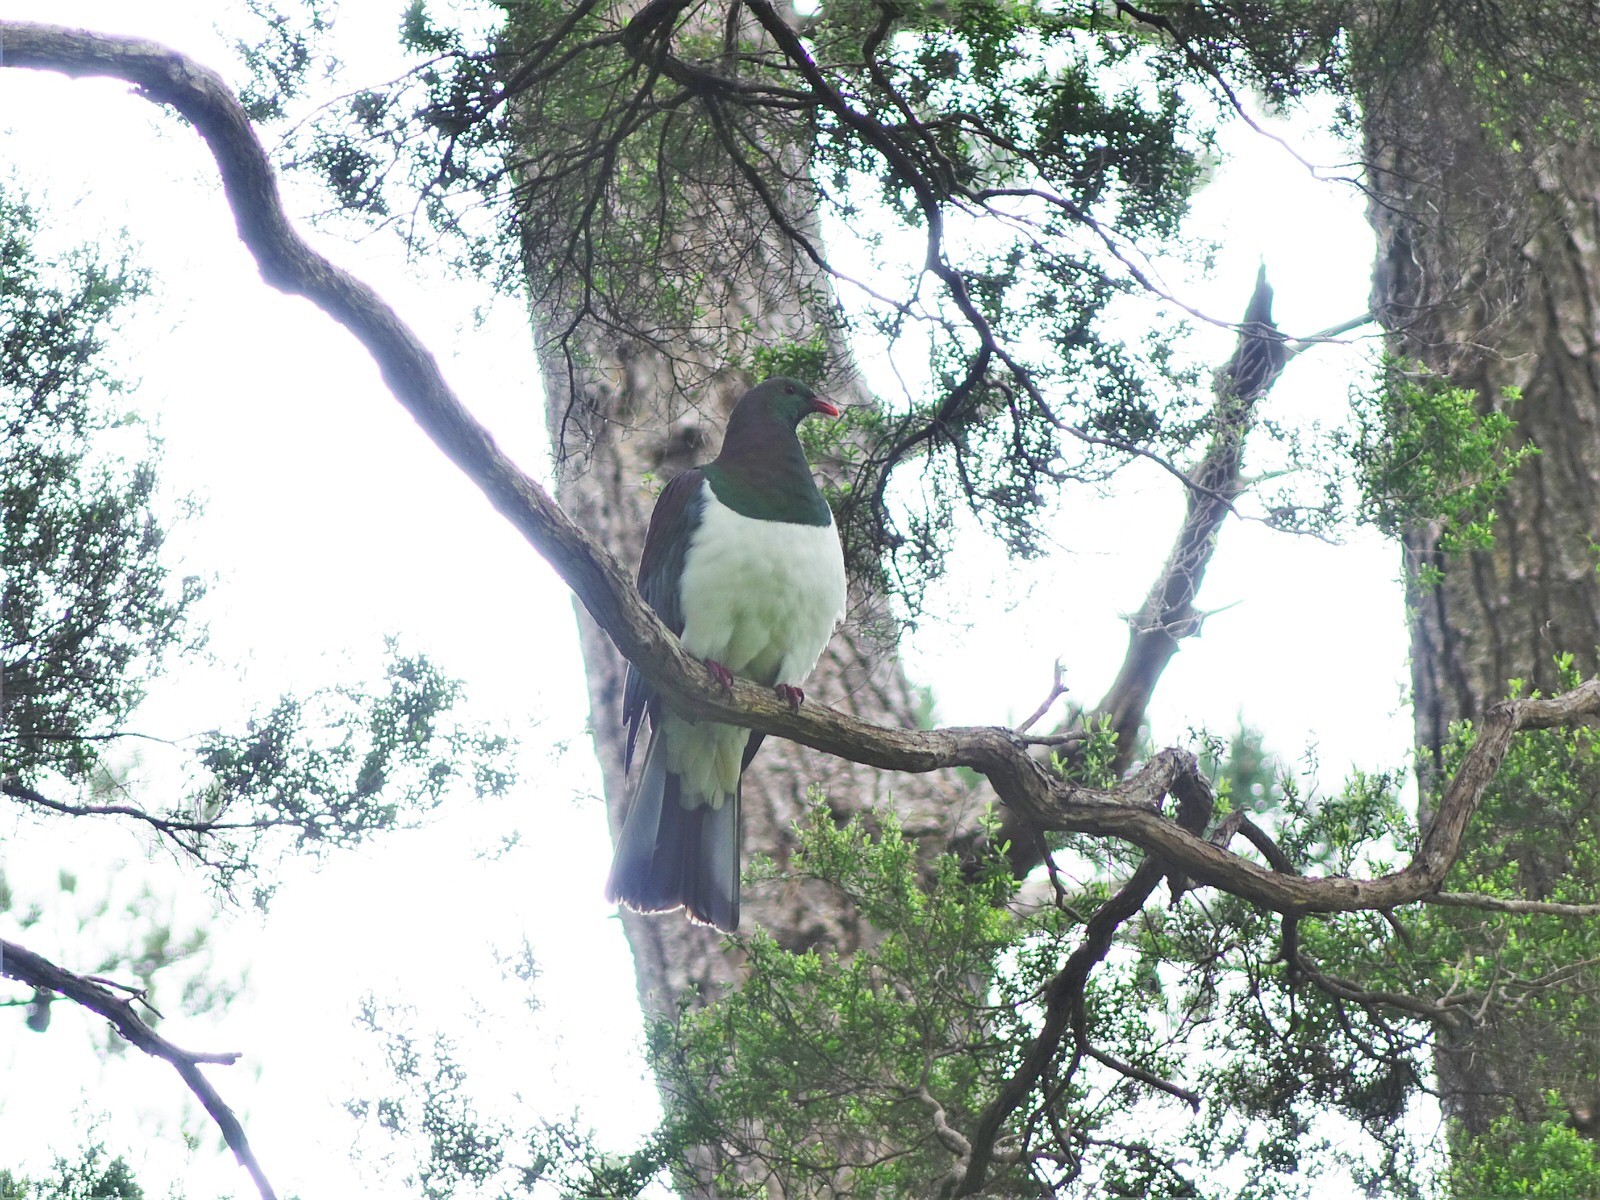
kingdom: Animalia
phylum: Chordata
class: Aves
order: Columbiformes
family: Columbidae
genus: Hemiphaga
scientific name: Hemiphaga novaeseelandiae
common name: New zealand pigeon
